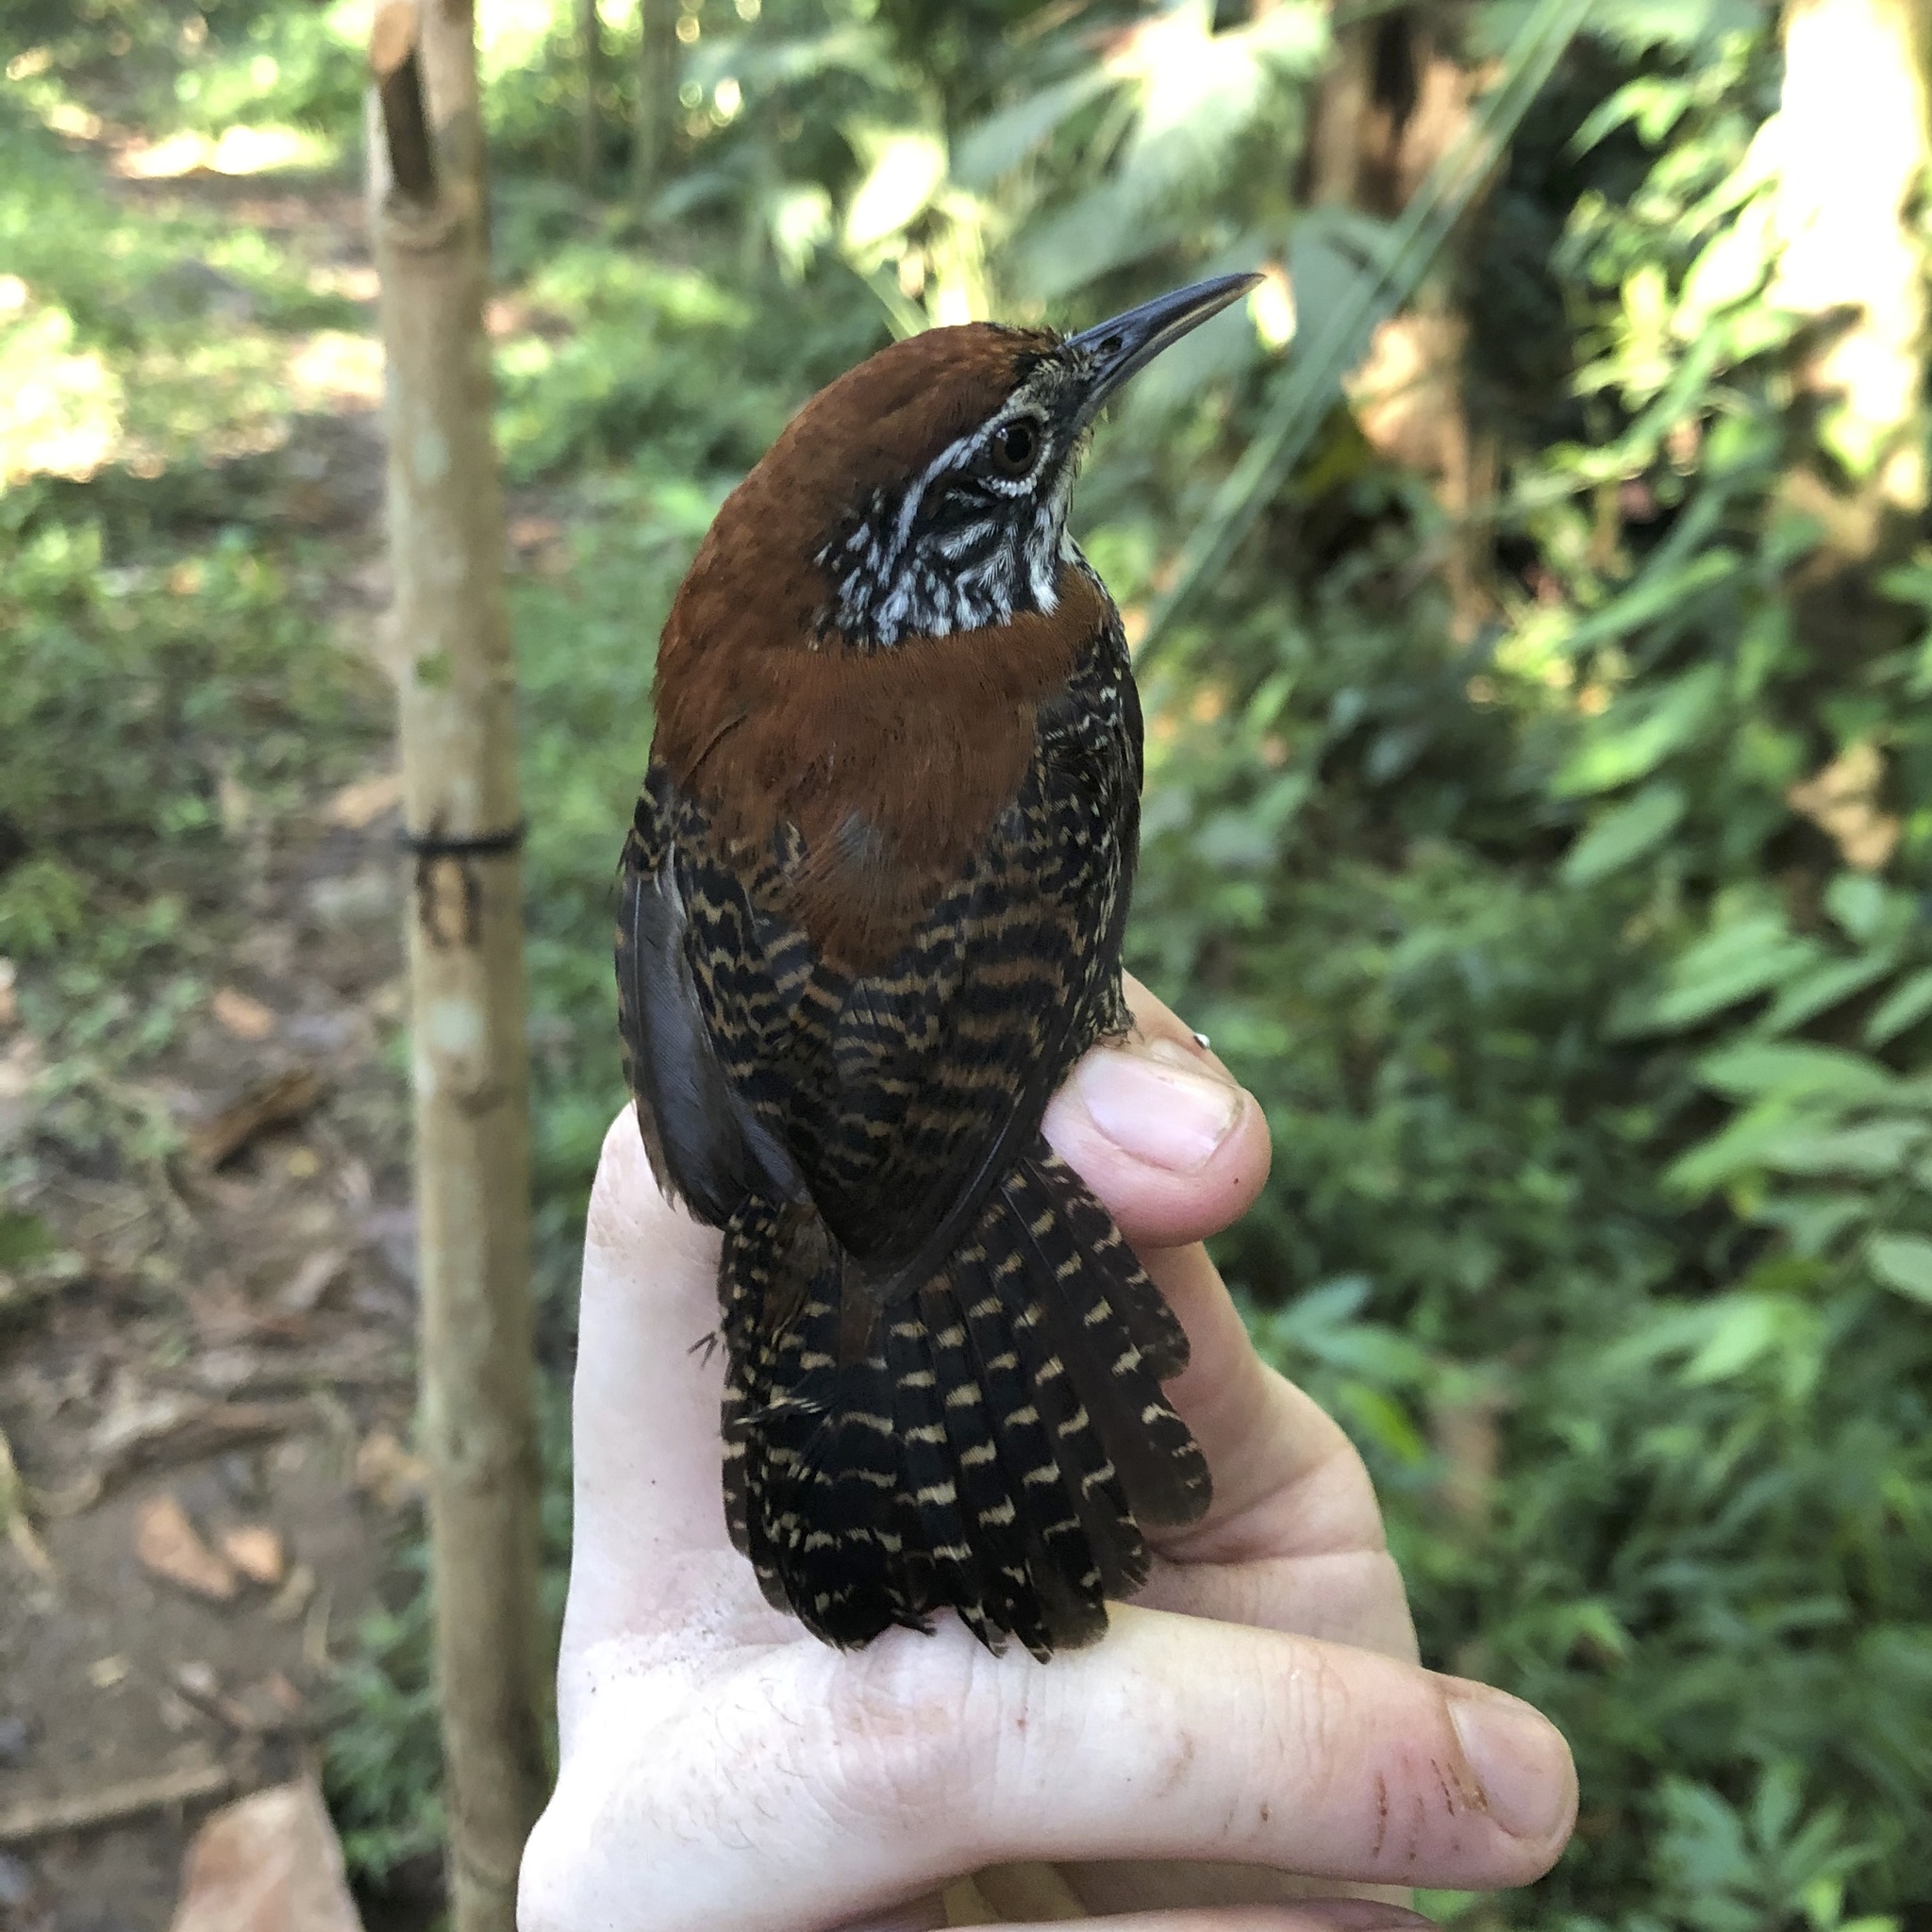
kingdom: Animalia
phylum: Chordata
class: Aves
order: Passeriformes
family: Troglodytidae
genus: Cantorchilus
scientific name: Cantorchilus semibadius
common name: Riverside wren
